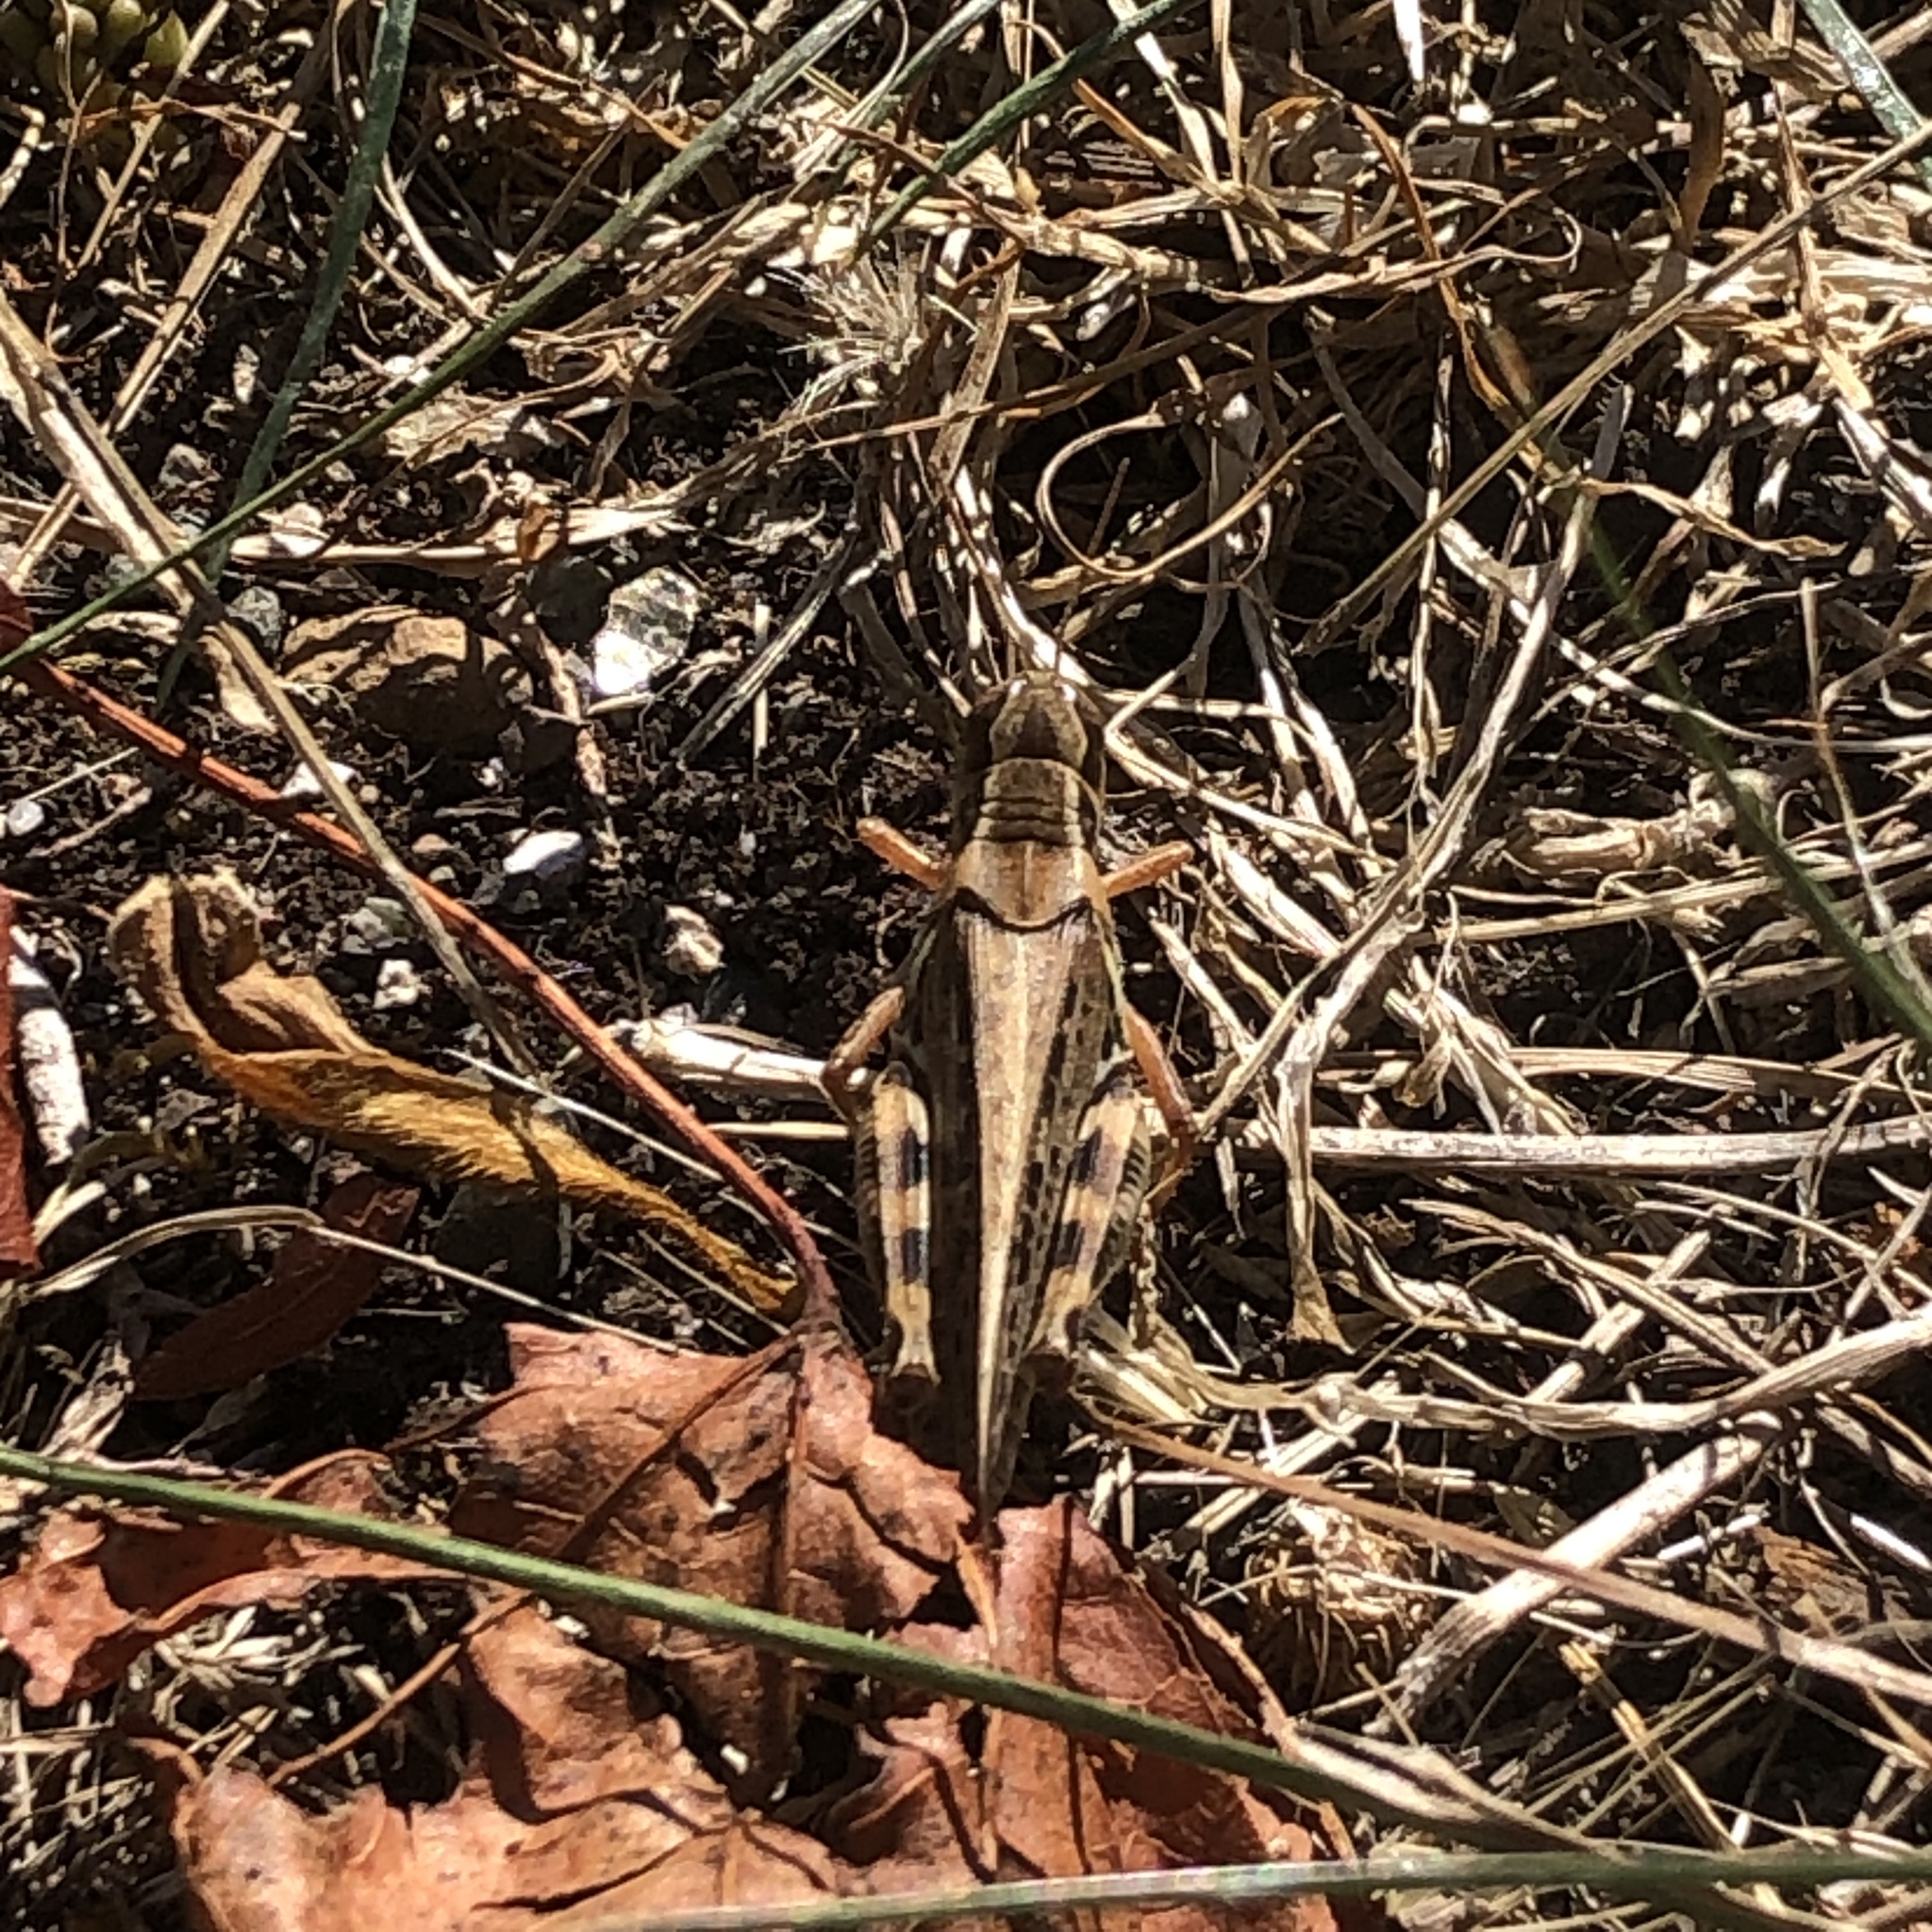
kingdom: Animalia
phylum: Arthropoda
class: Insecta
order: Orthoptera
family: Acrididae
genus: Melanoplus
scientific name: Melanoplus sanguinipes
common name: Migratory grasshopper
